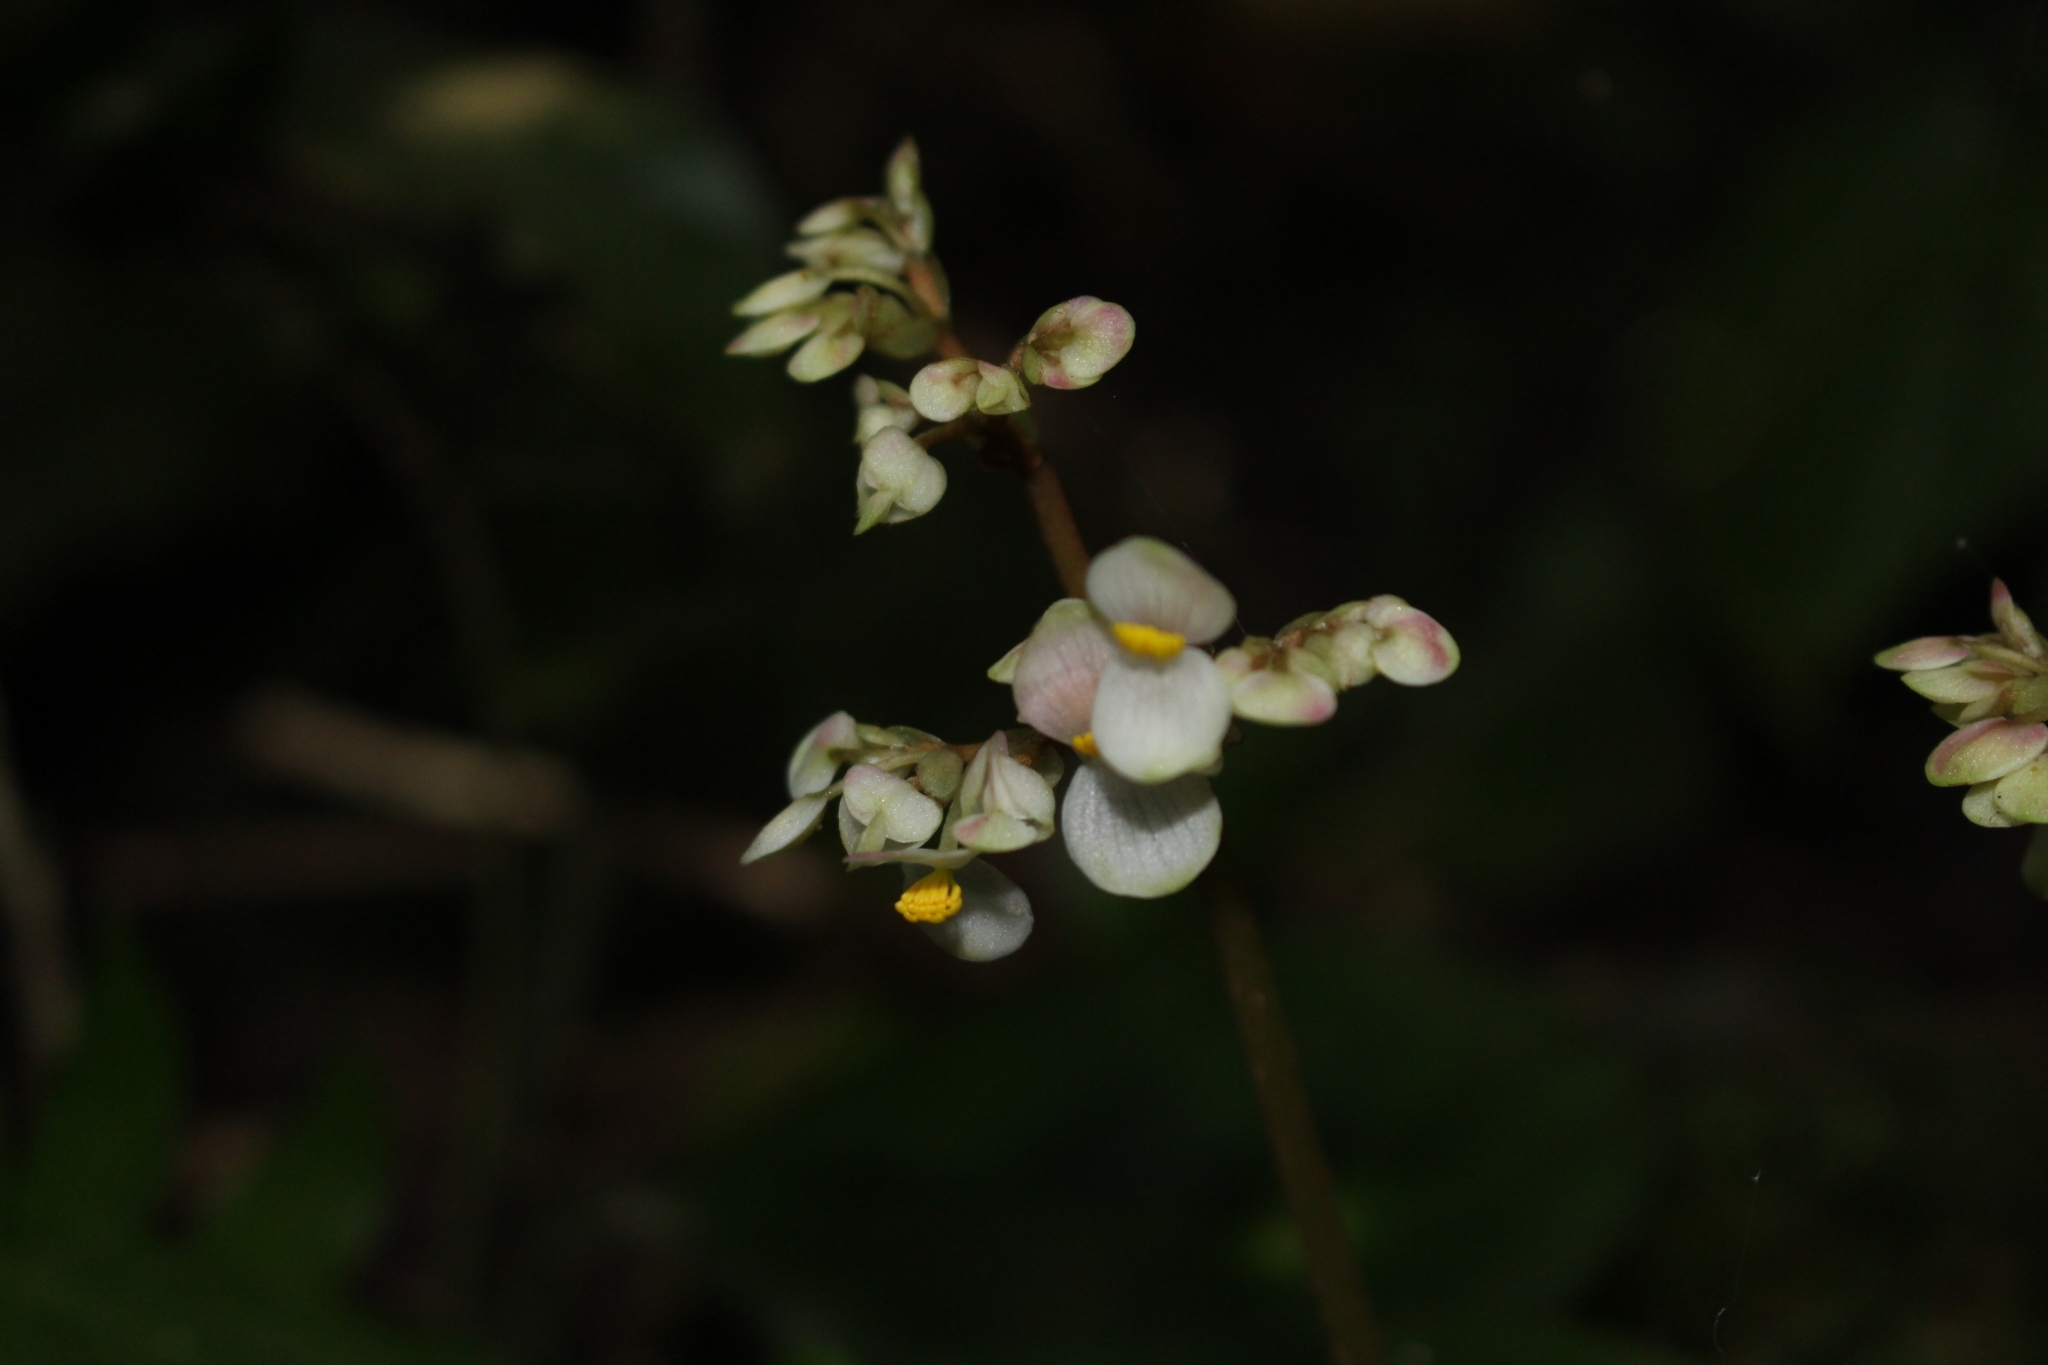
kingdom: Plantae
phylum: Tracheophyta
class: Magnoliopsida
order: Cucurbitales
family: Begoniaceae
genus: Begonia
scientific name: Begonia conchifolia
